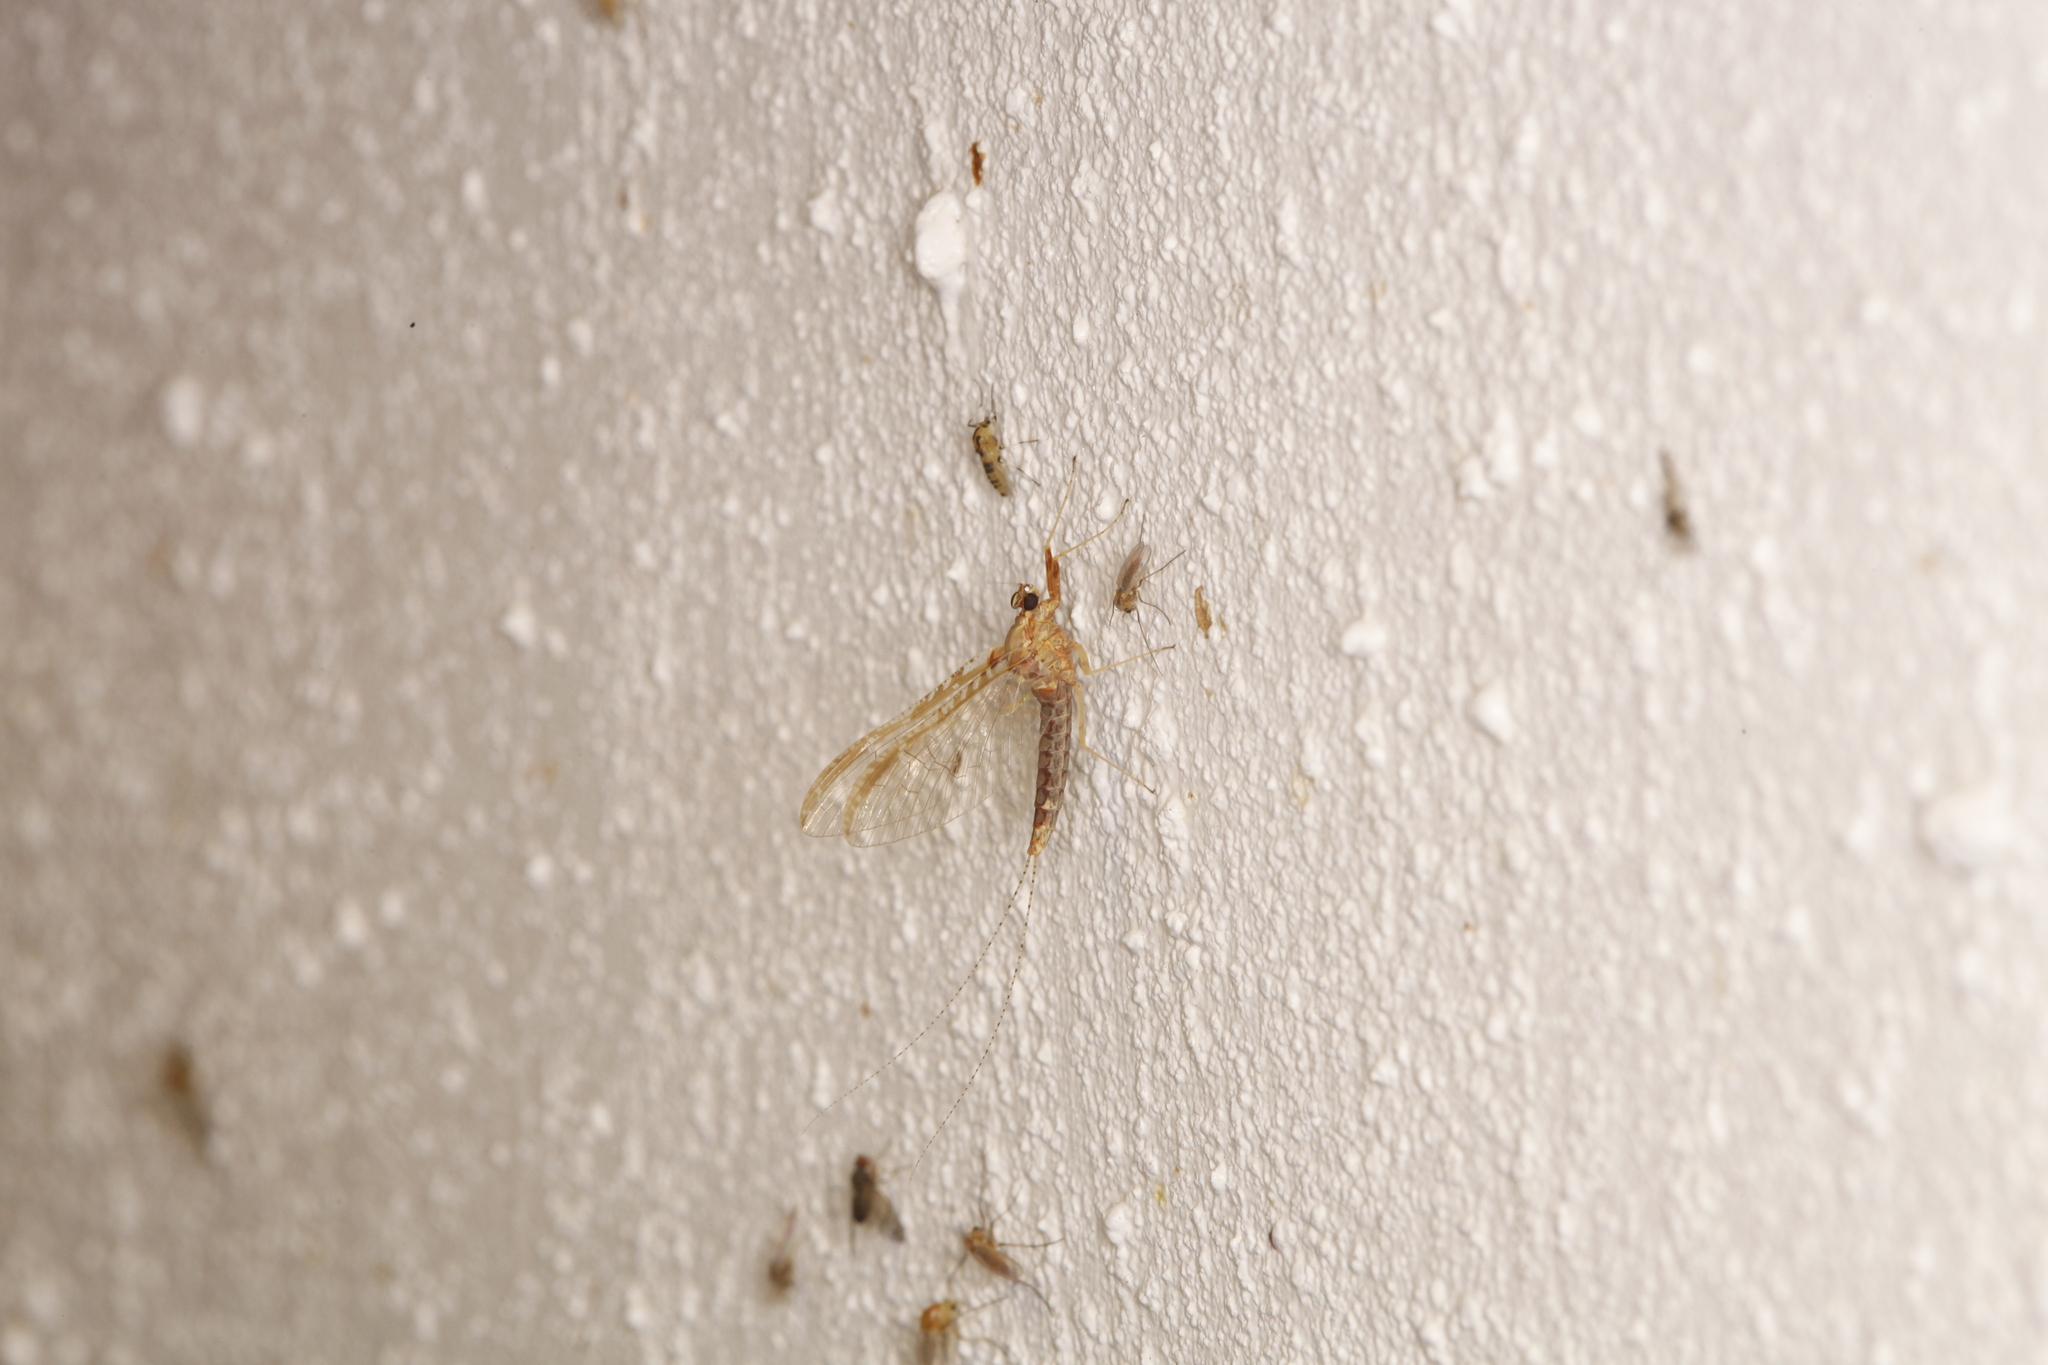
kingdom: Animalia
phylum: Arthropoda
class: Insecta
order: Ephemeroptera
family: Baetidae
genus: Cloeon
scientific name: Cloeon dipterum
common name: Pond olive
